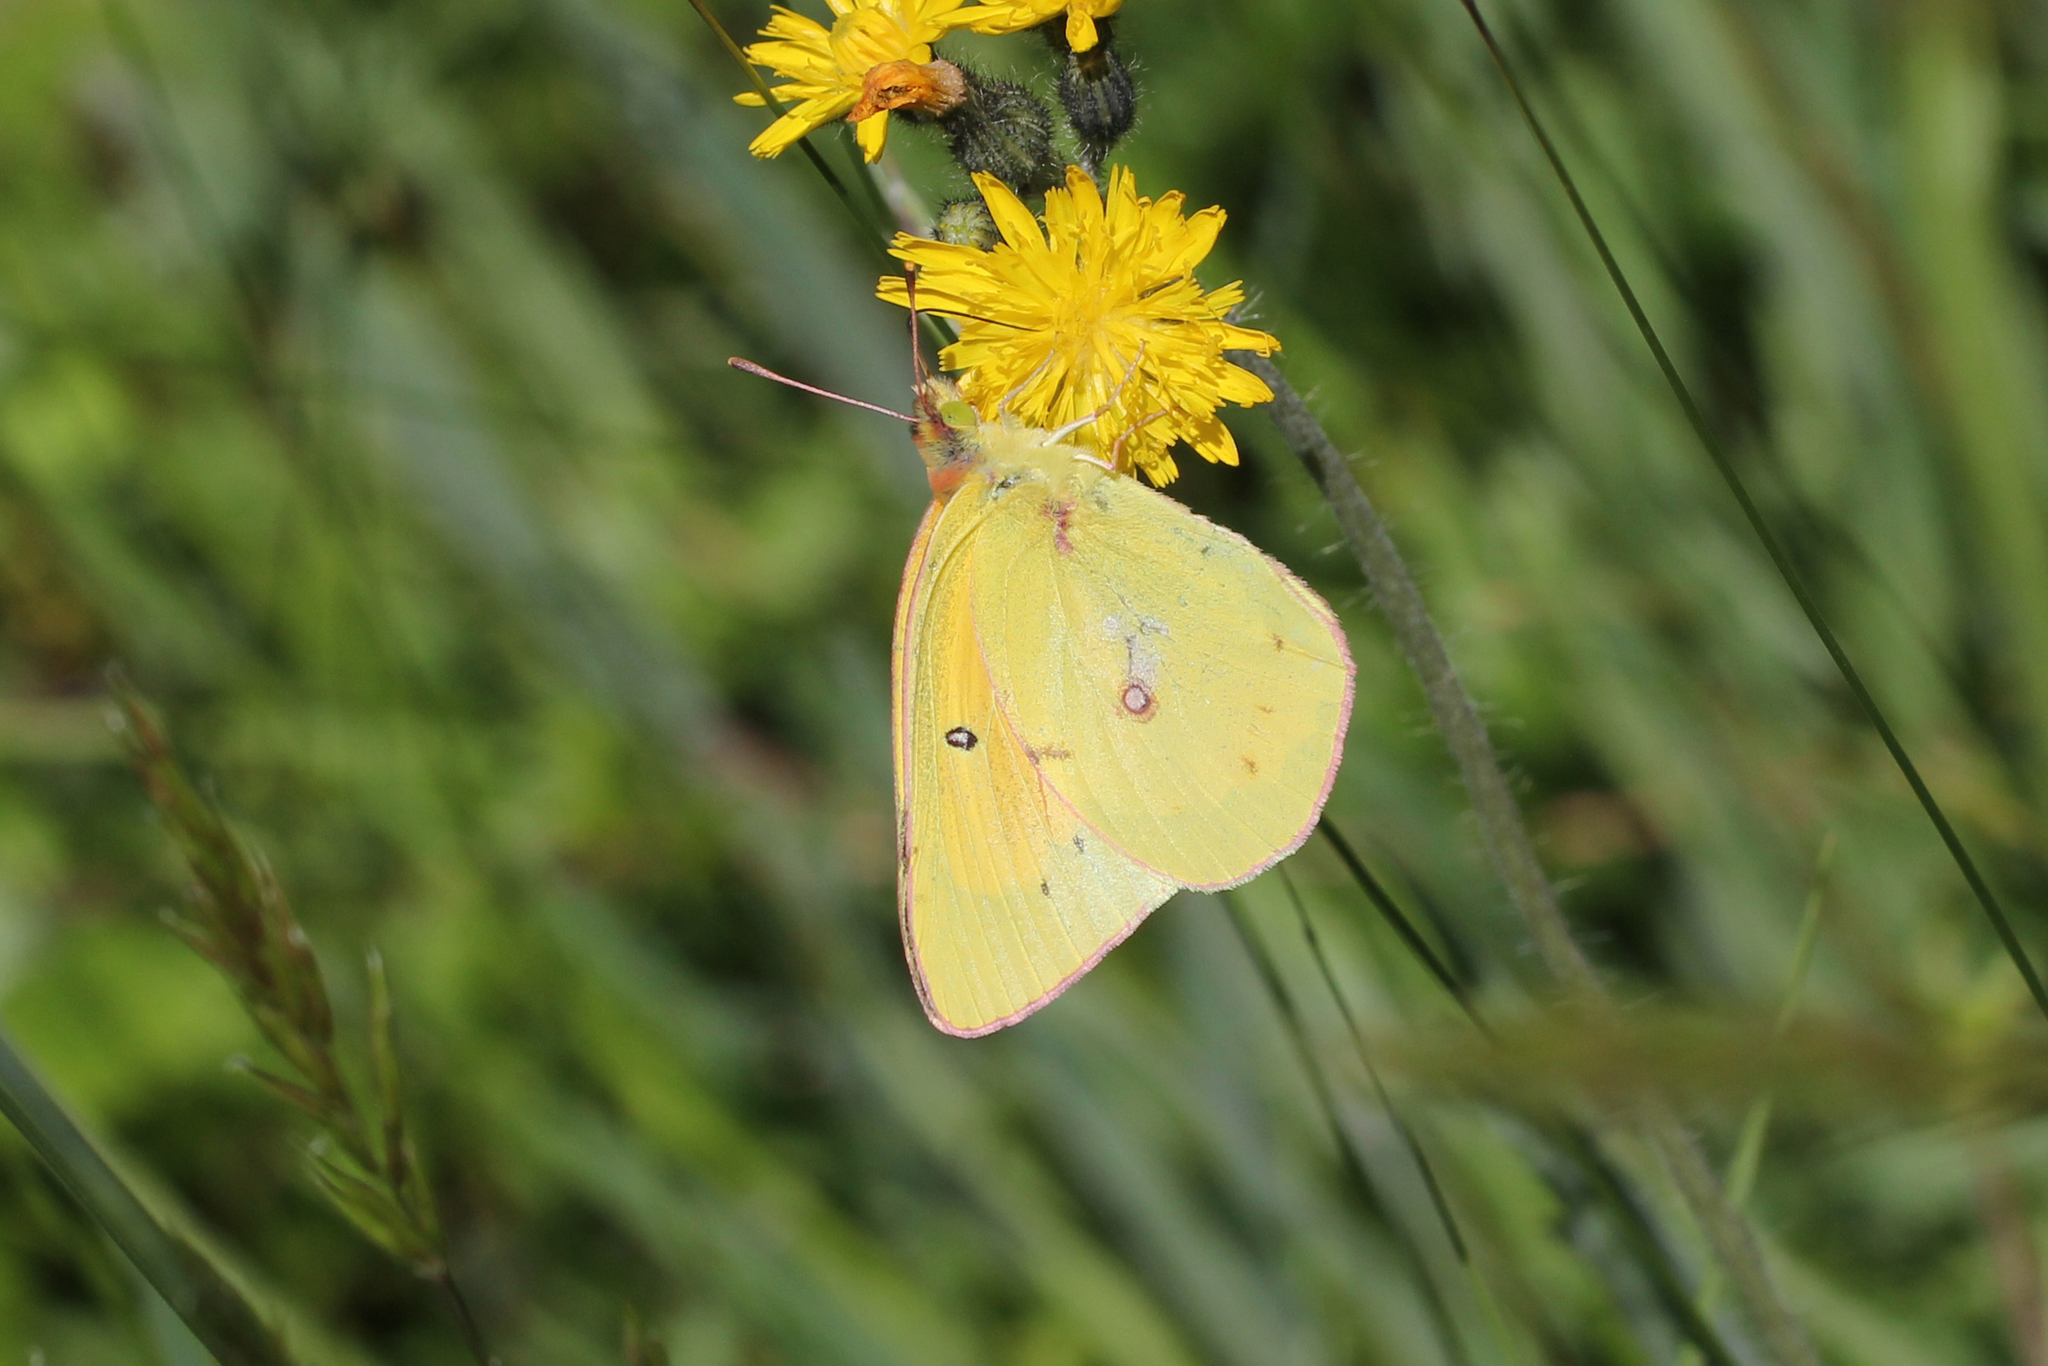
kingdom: Animalia
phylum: Arthropoda
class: Insecta
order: Lepidoptera
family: Pieridae
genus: Colias
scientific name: Colias eurytheme
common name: Alfalfa butterfly
